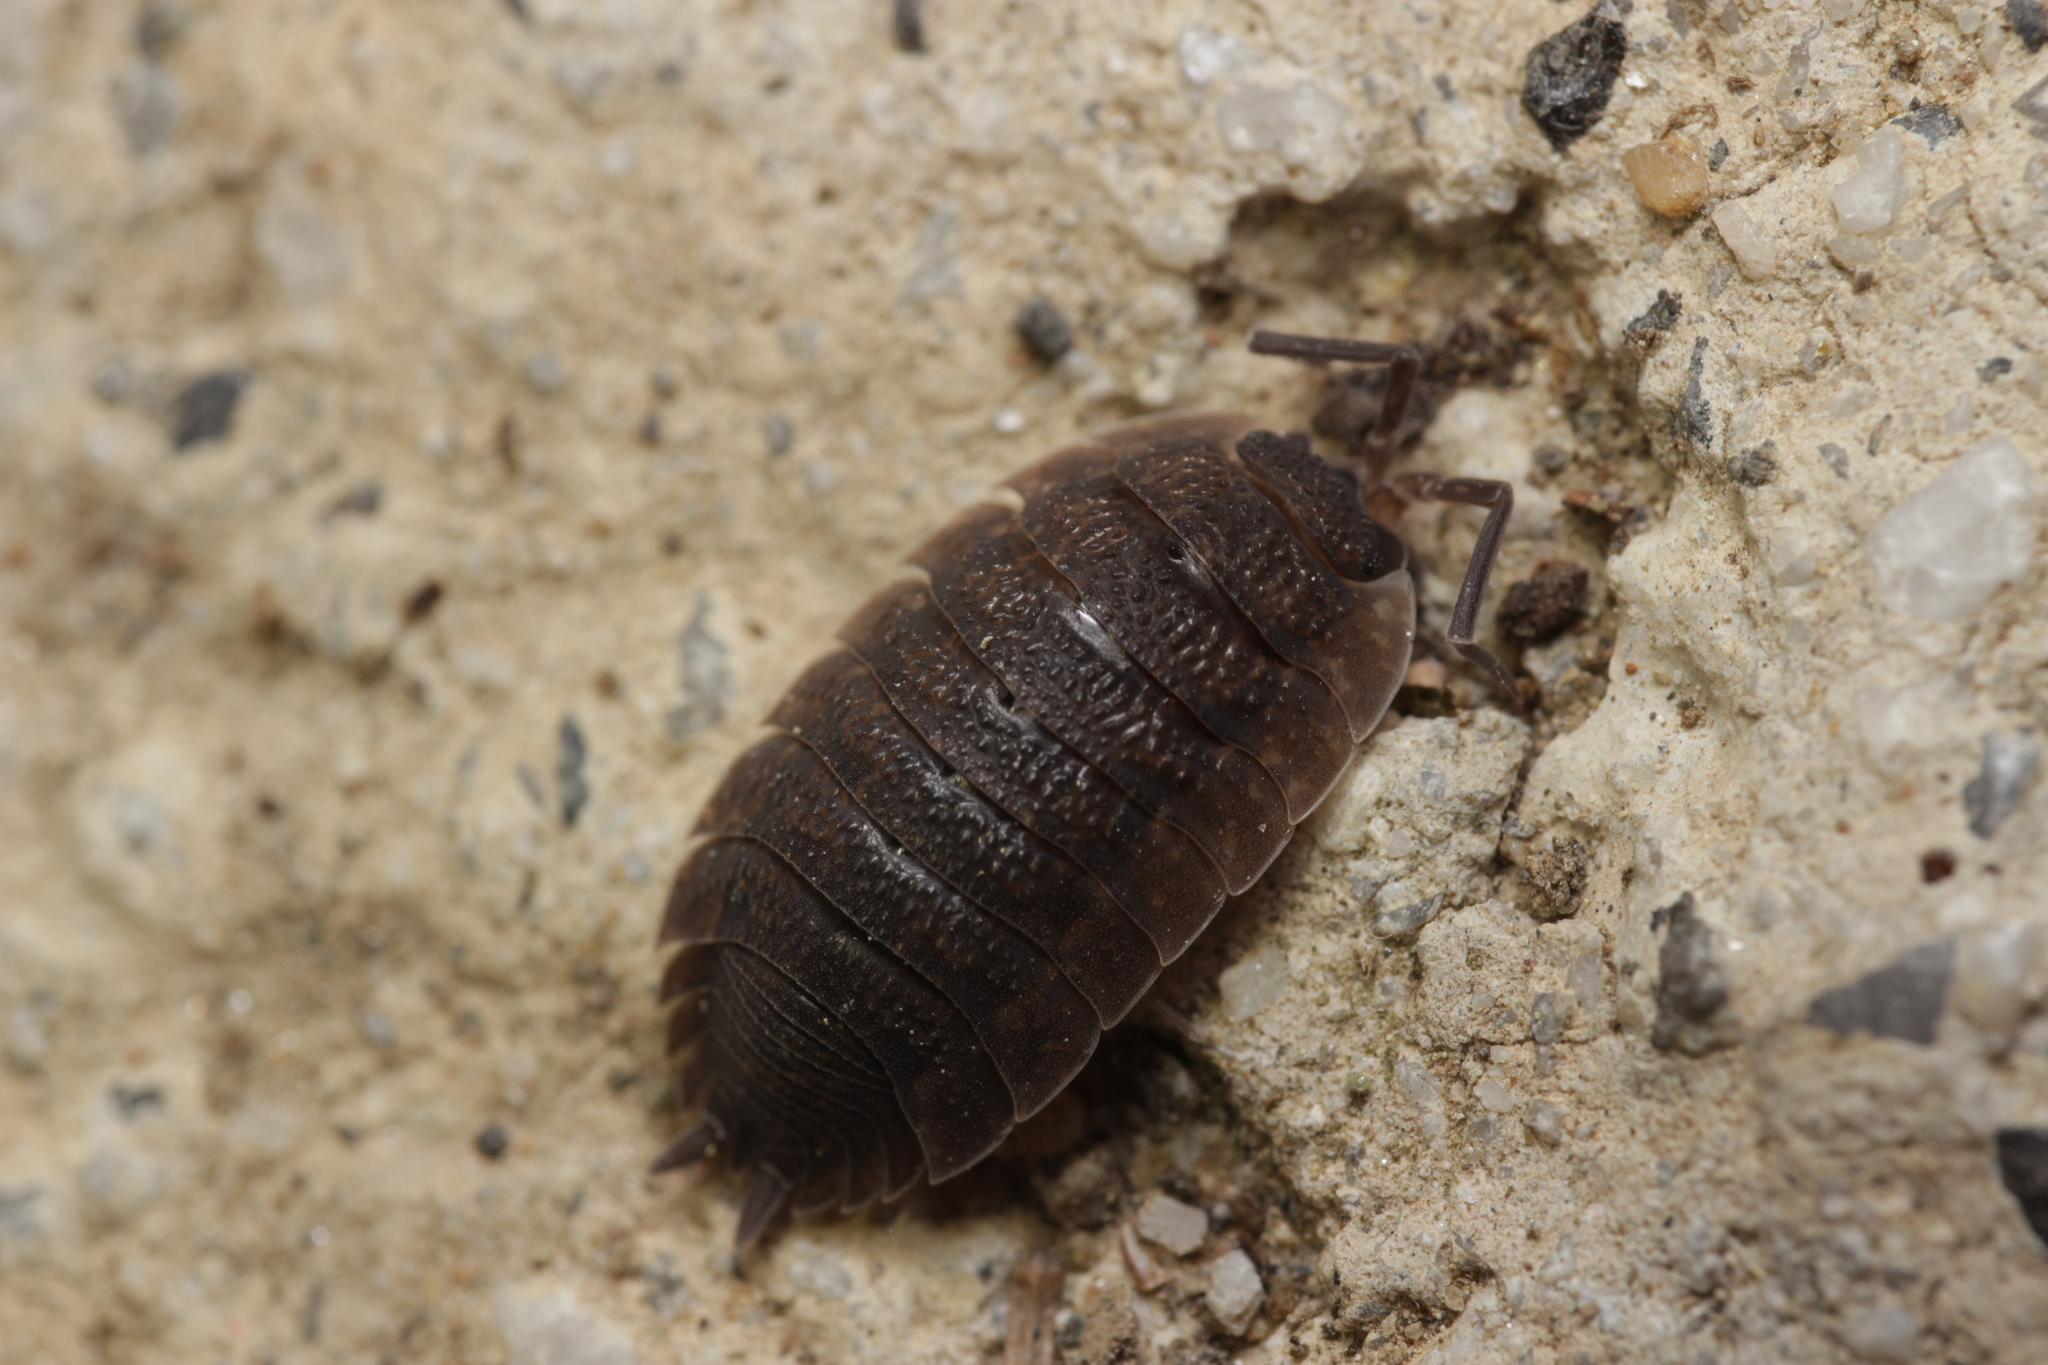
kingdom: Animalia
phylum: Arthropoda
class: Malacostraca
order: Isopoda
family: Porcellionidae
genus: Porcellio
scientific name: Porcellio scaber
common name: Common rough woodlouse
